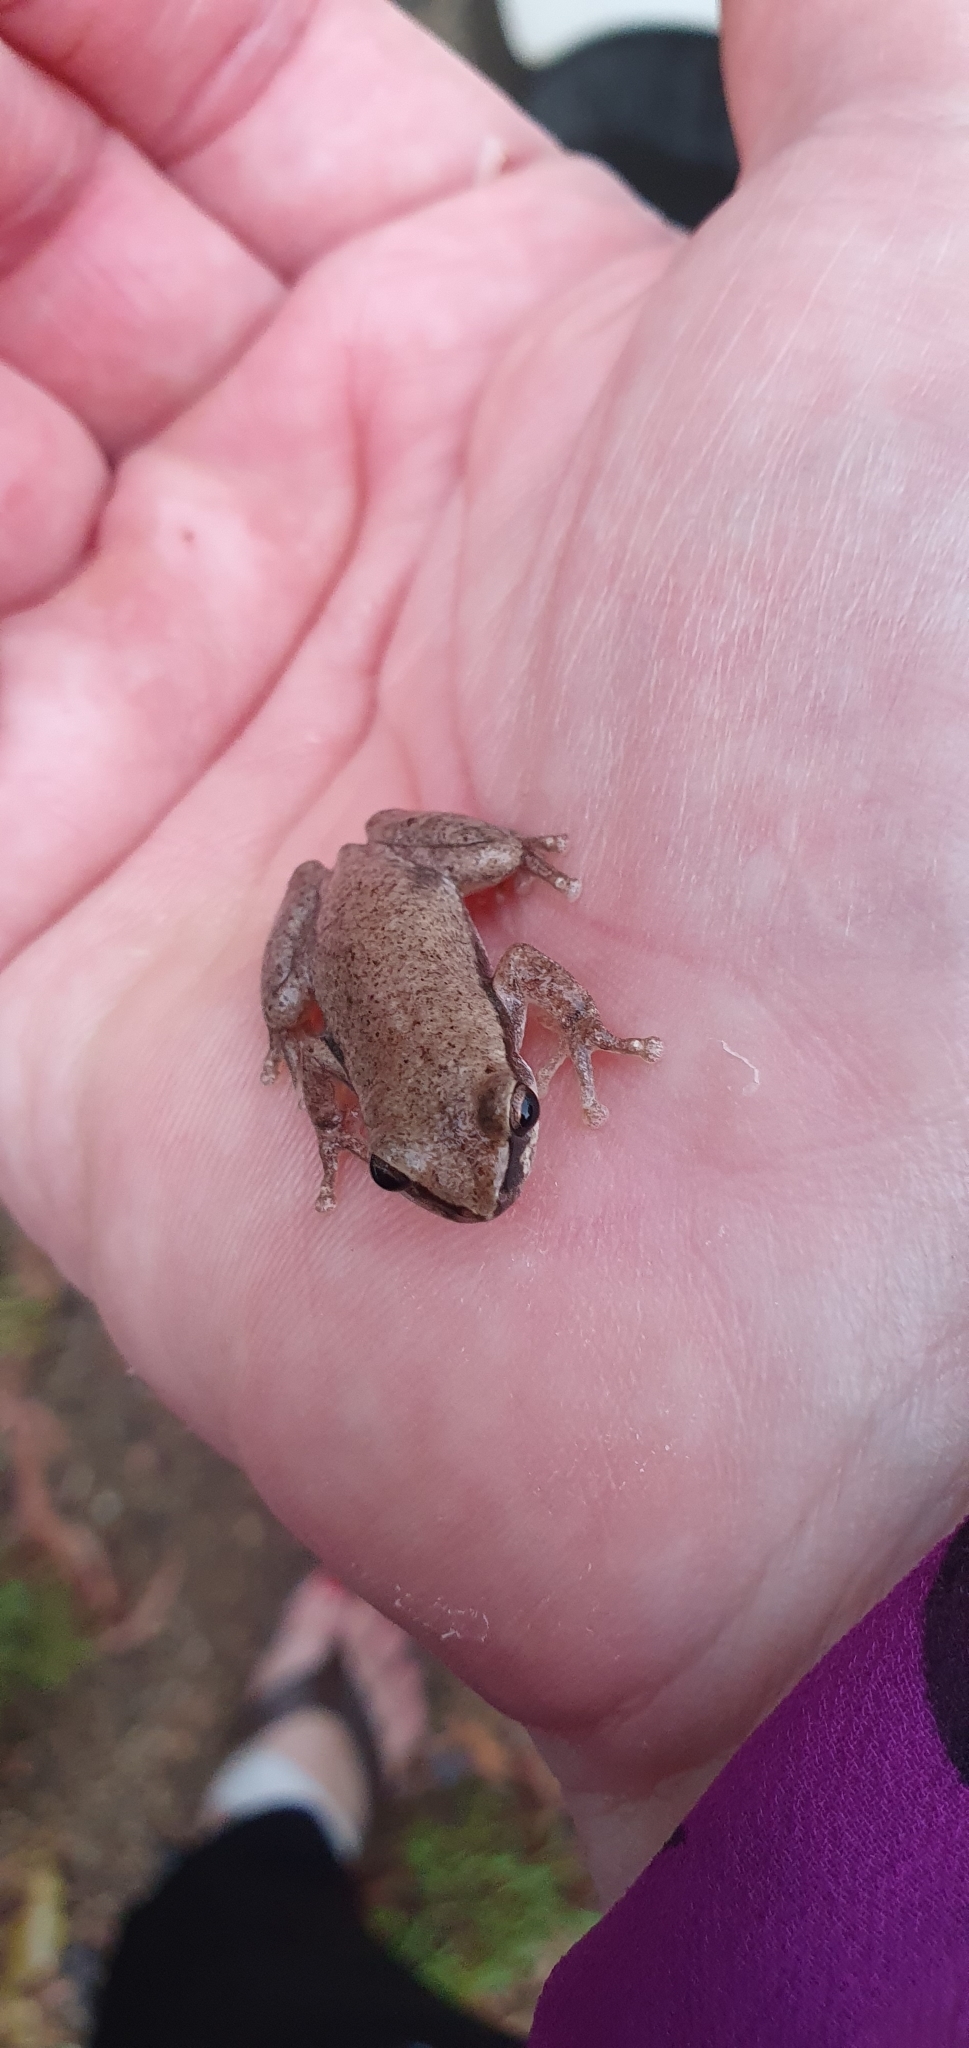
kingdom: Animalia
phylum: Chordata
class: Amphibia
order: Anura
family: Pelodryadidae
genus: Litoria
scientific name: Litoria rubella
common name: Desert tree frog
